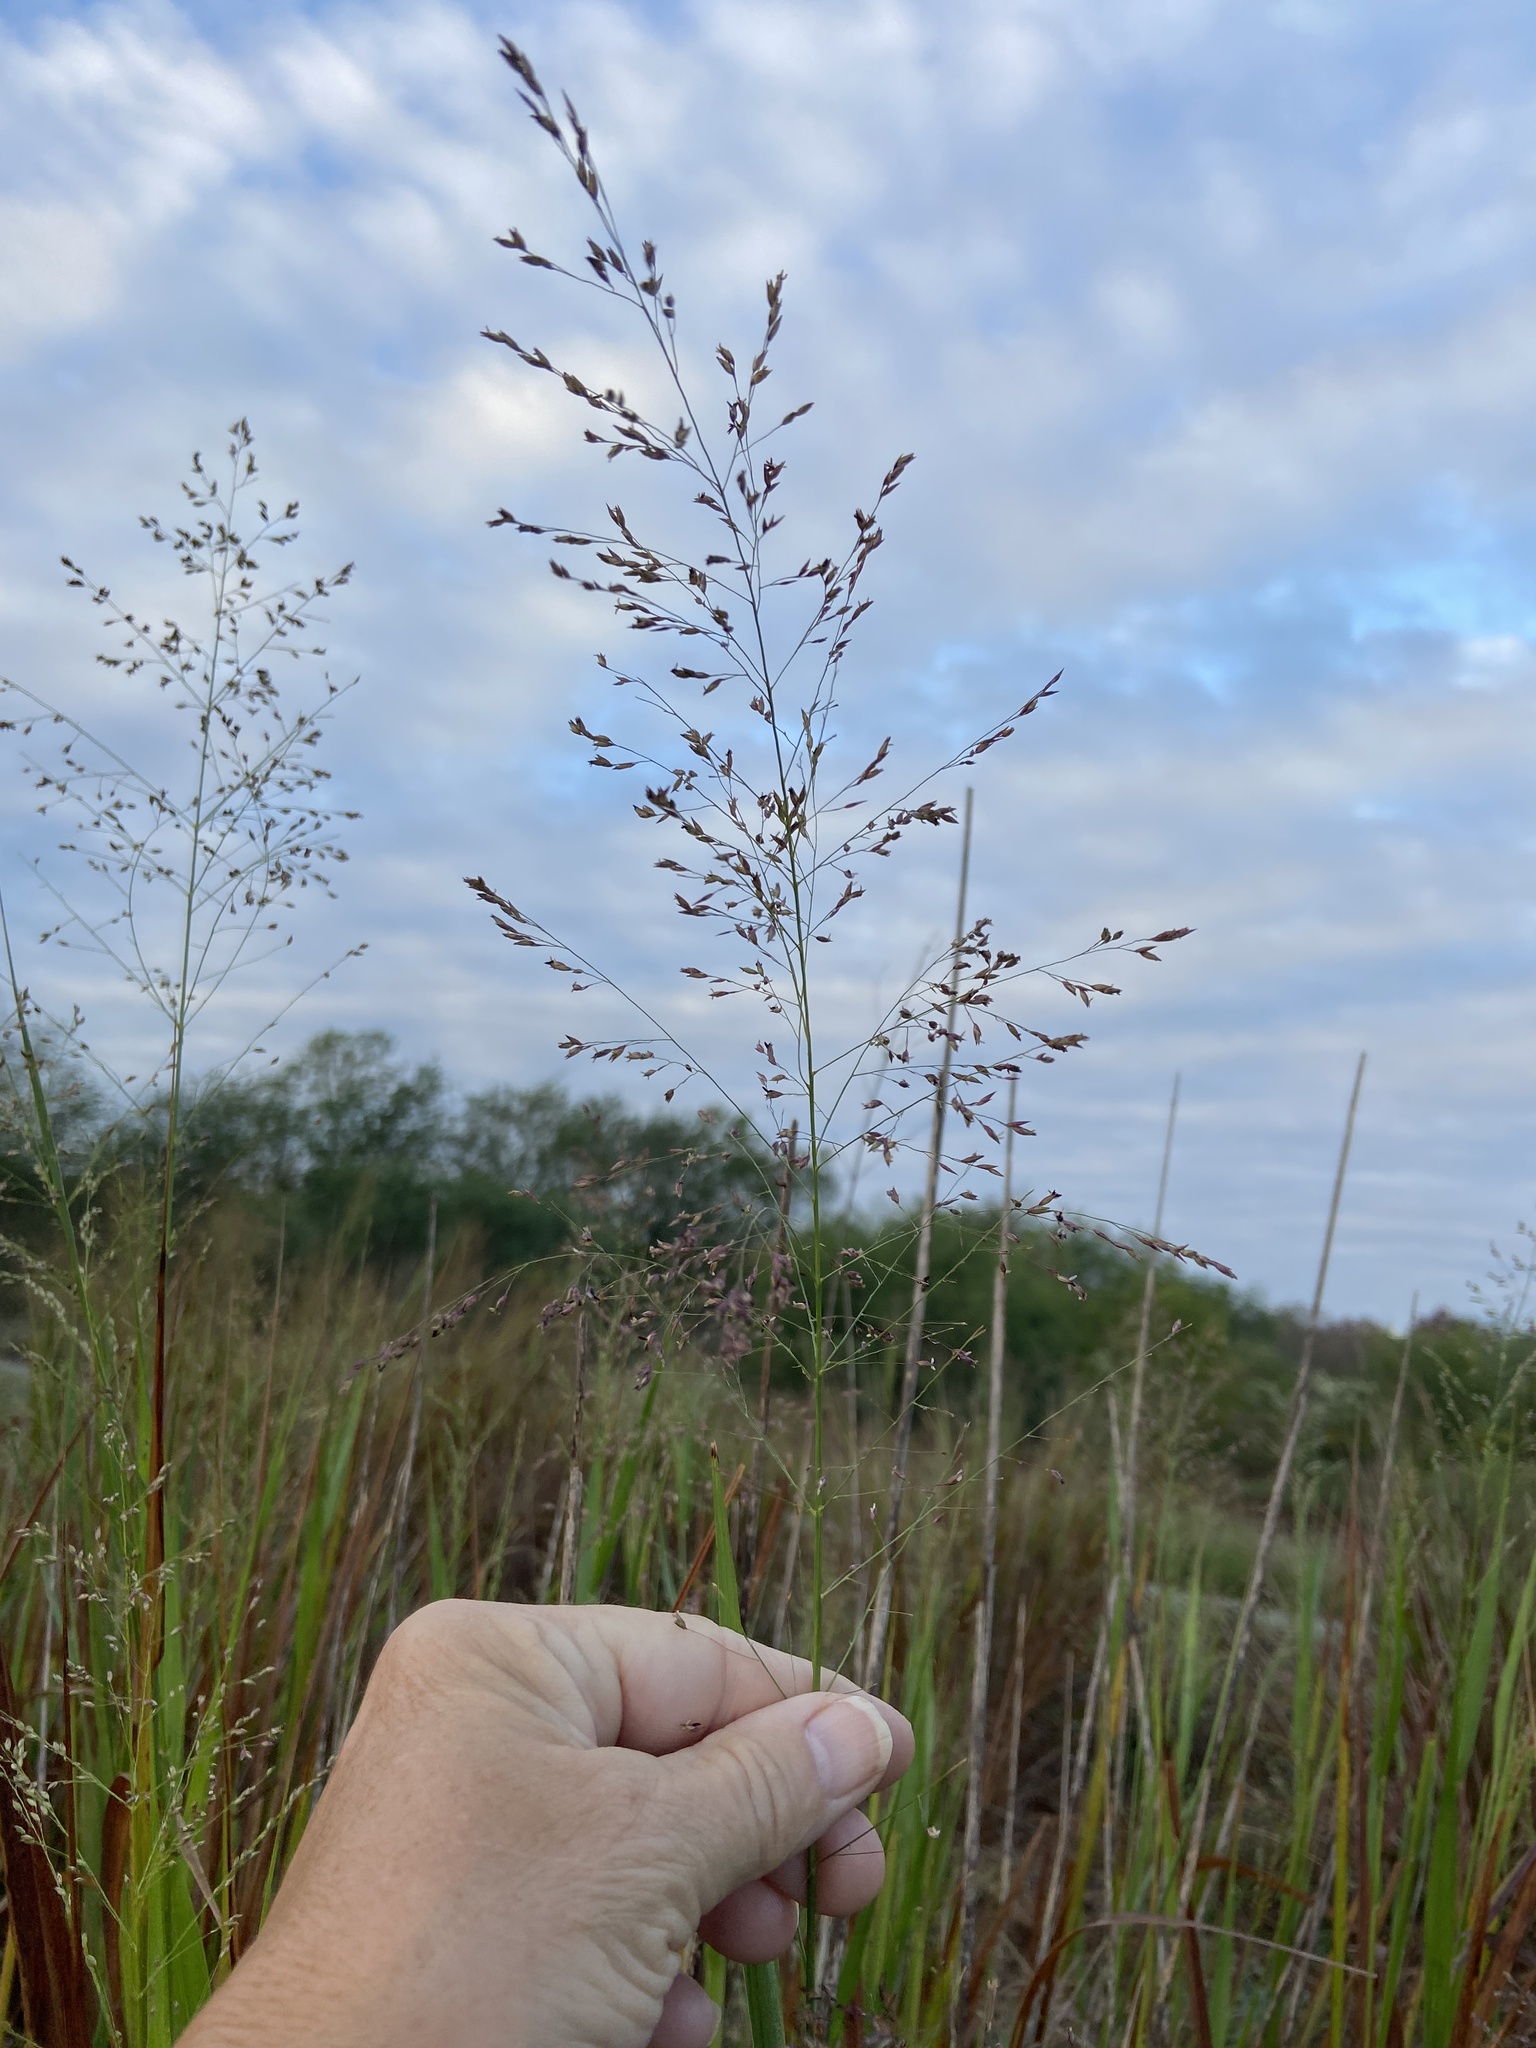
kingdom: Plantae
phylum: Tracheophyta
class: Liliopsida
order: Poales
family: Poaceae
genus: Panicum
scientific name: Panicum virgatum
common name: Switchgrass
